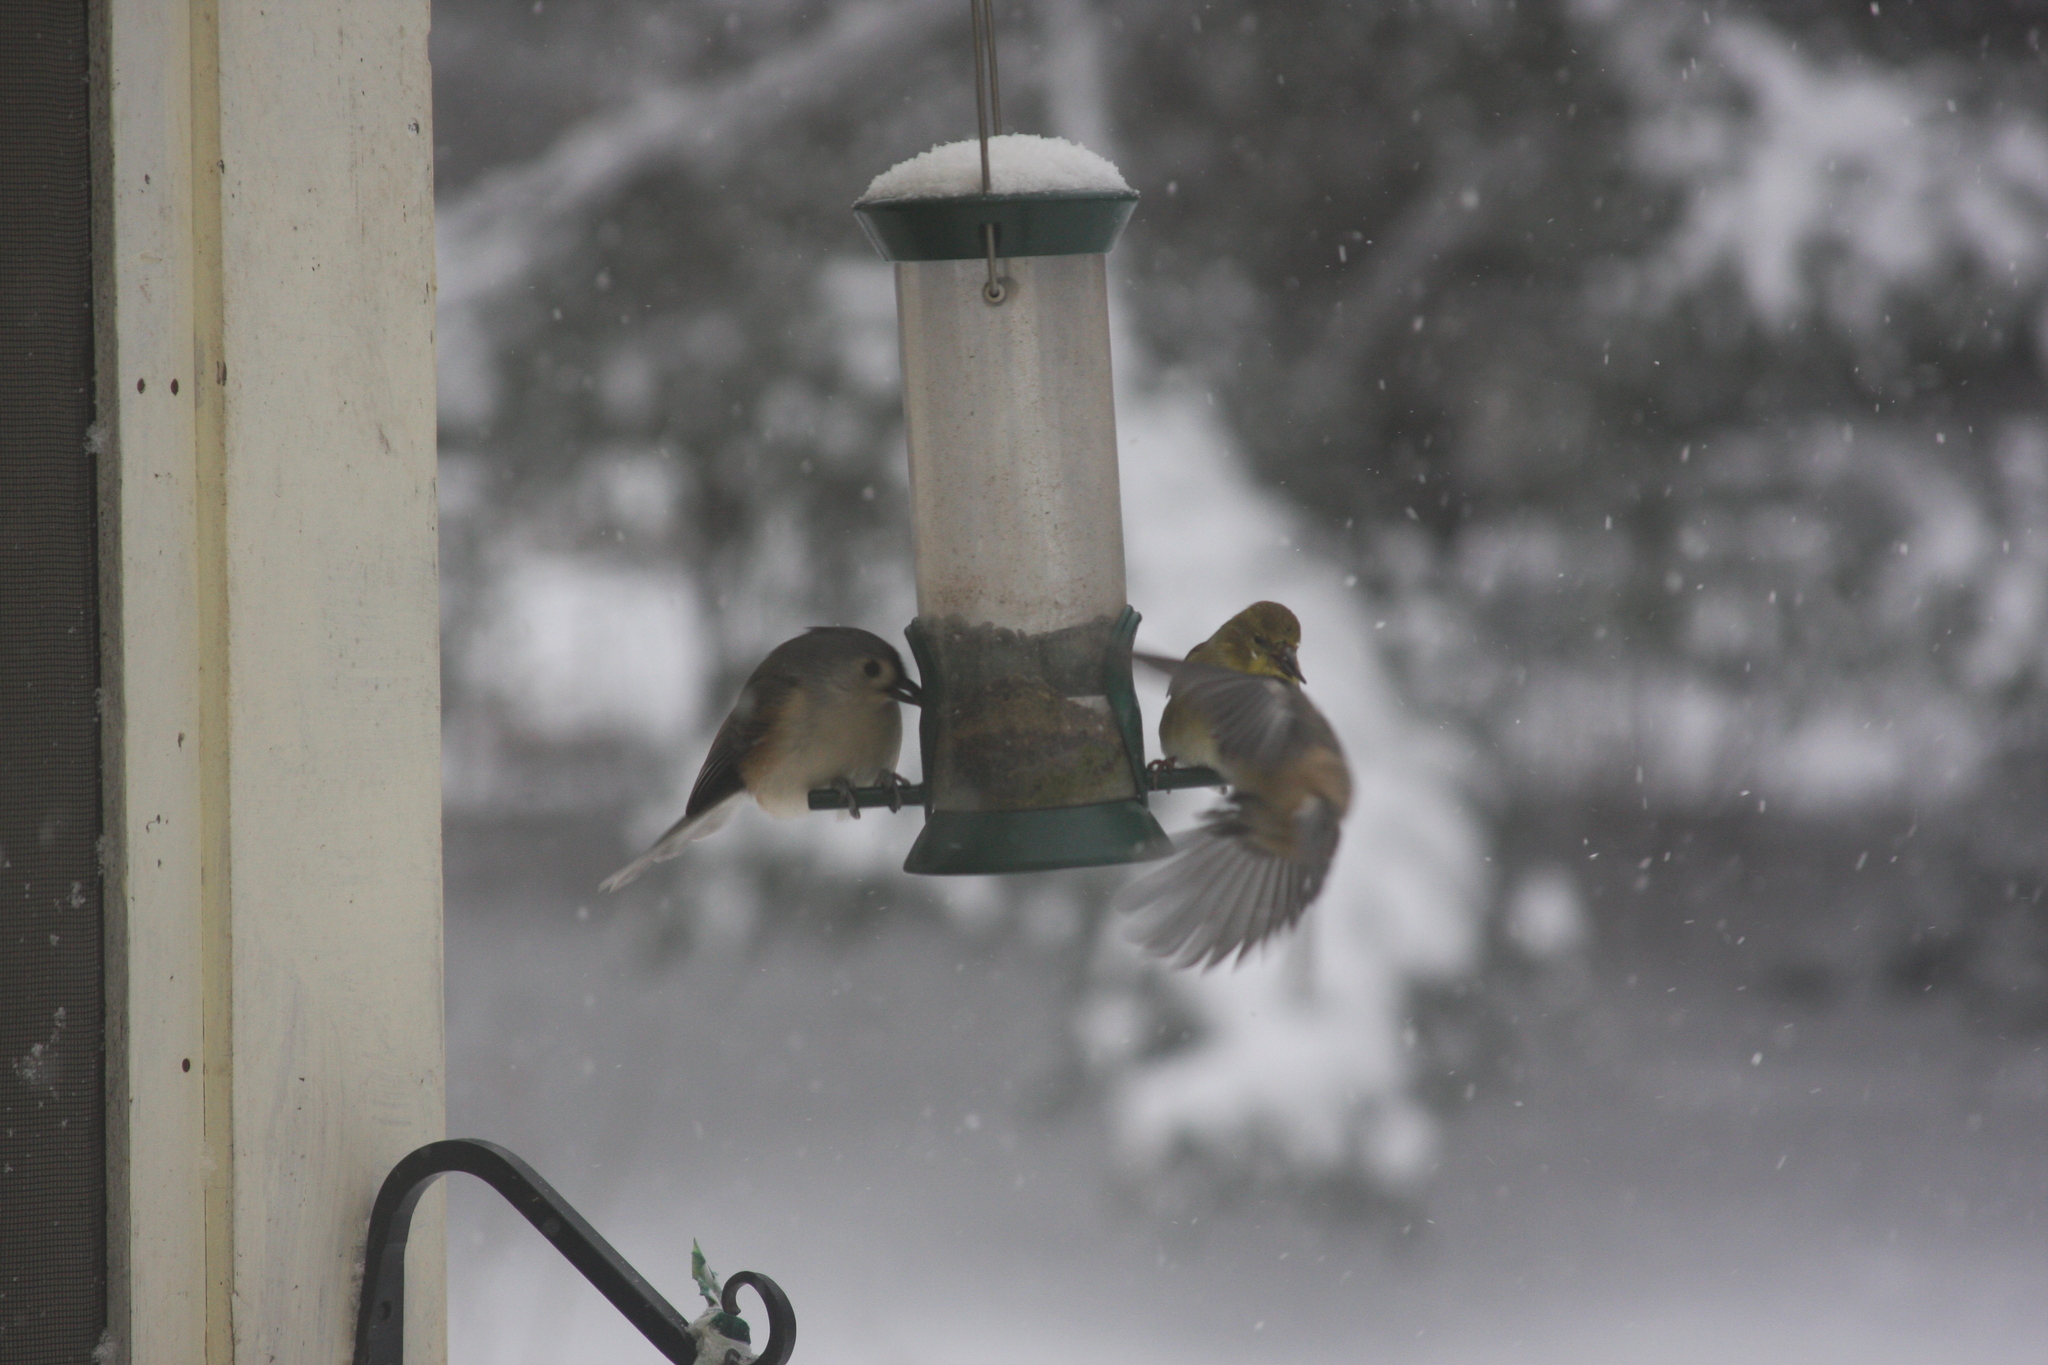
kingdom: Animalia
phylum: Chordata
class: Aves
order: Passeriformes
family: Paridae
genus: Baeolophus
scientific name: Baeolophus bicolor
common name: Tufted titmouse
